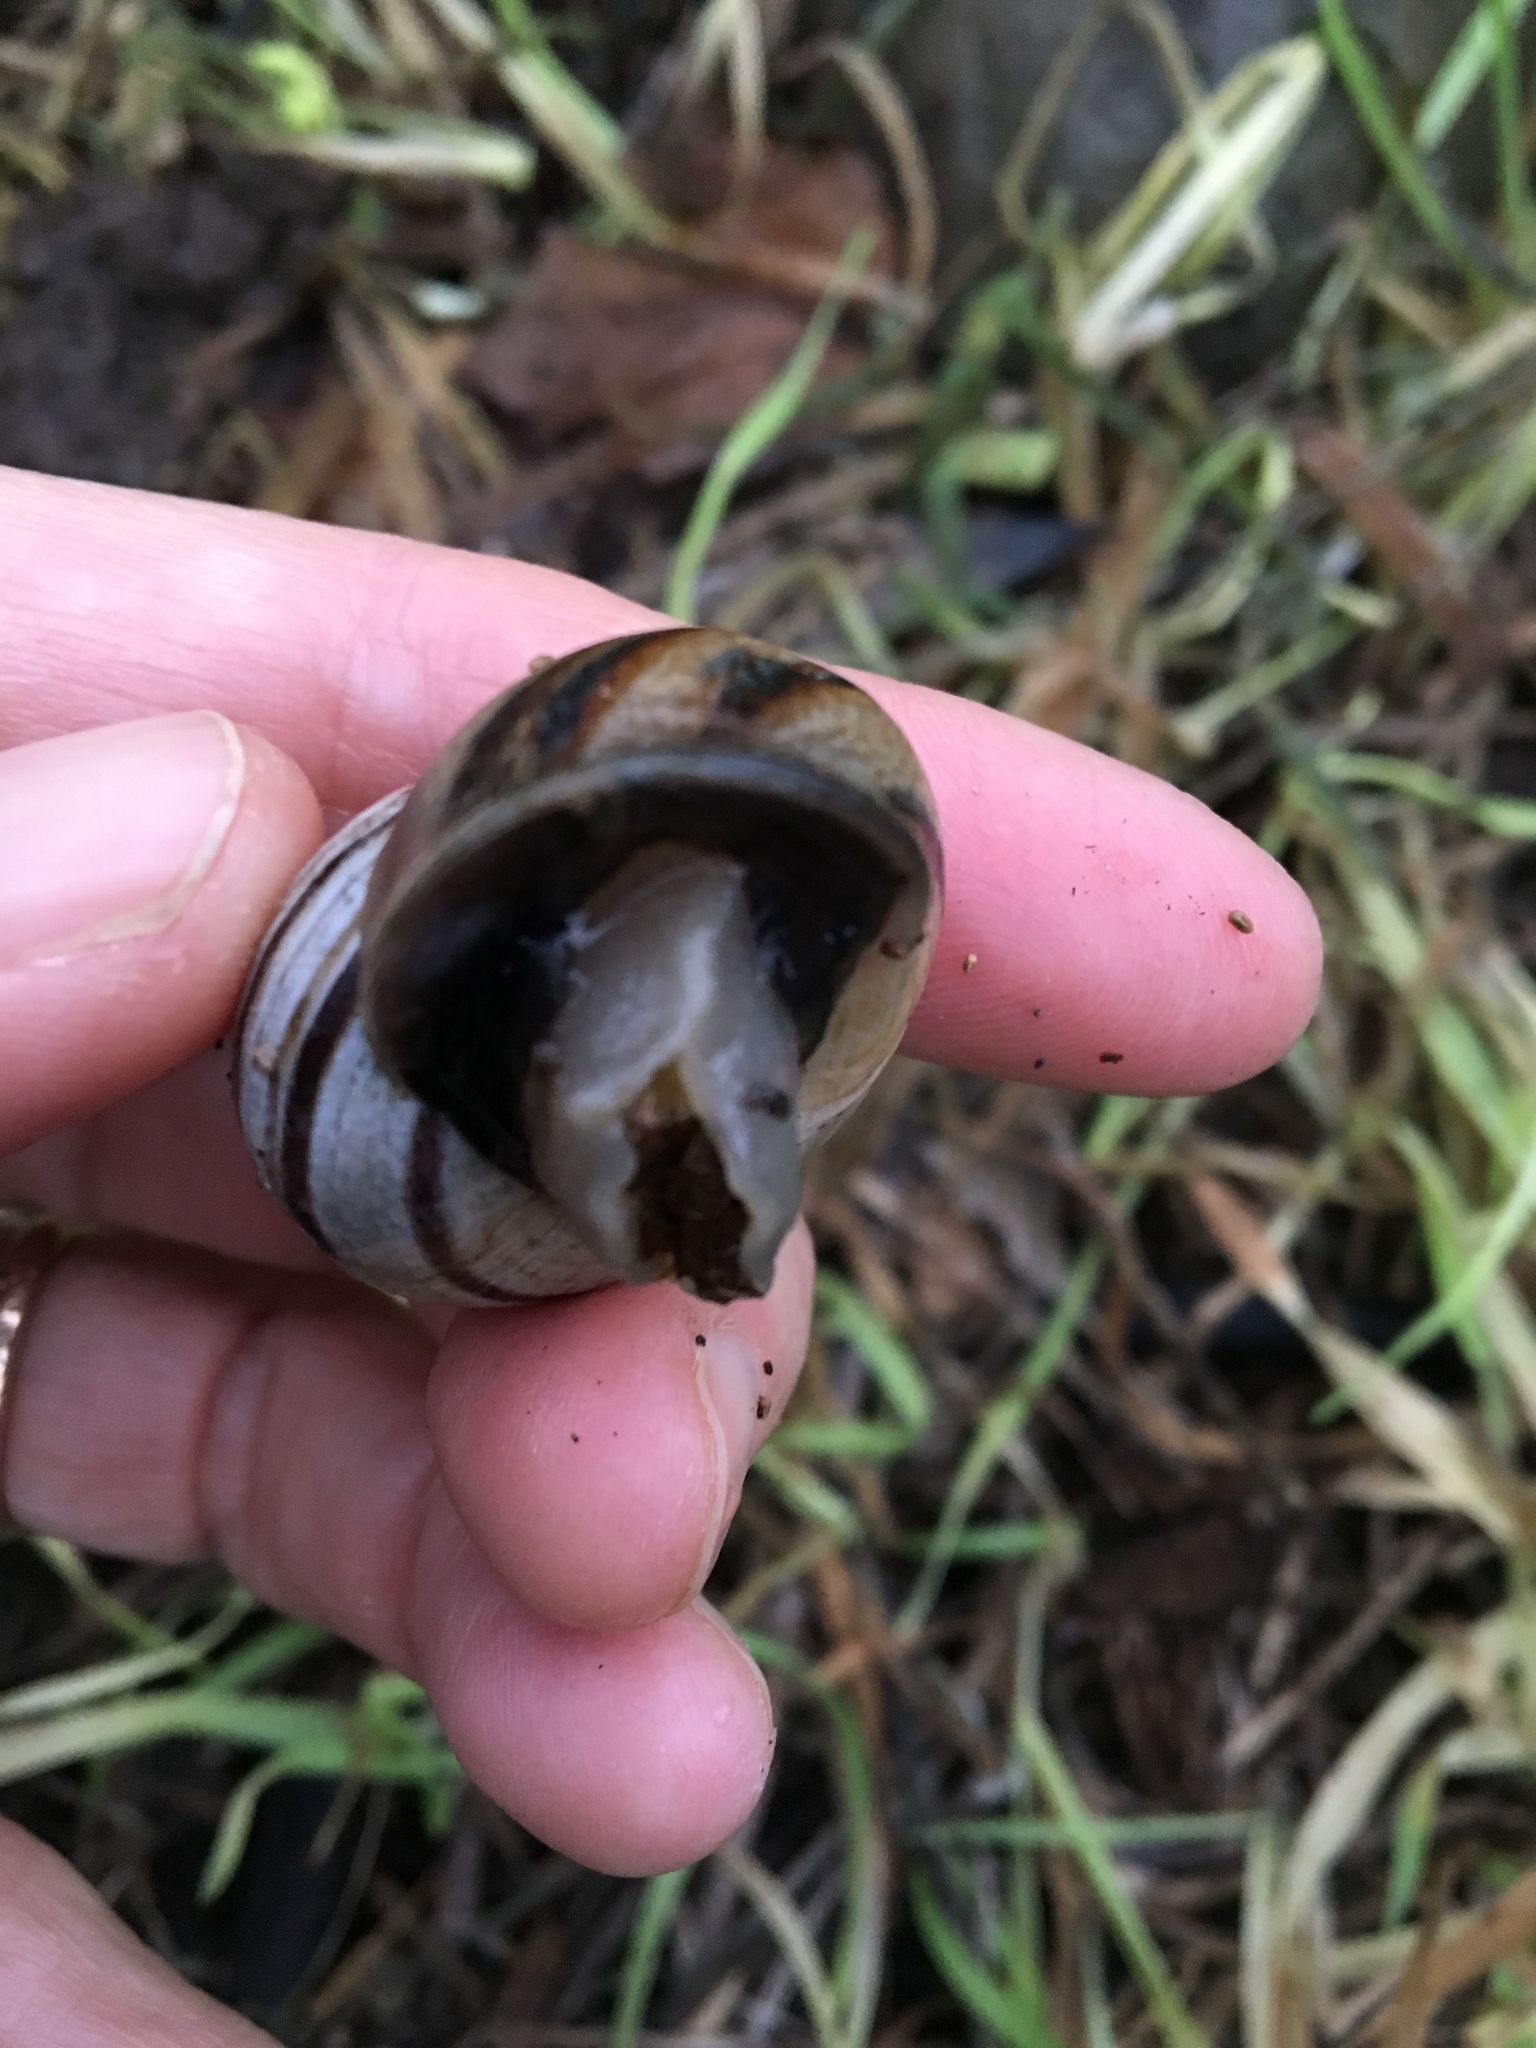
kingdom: Animalia
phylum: Mollusca
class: Gastropoda
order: Stylommatophora
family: Helicidae
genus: Otala
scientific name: Otala lactea
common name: Milk snail
